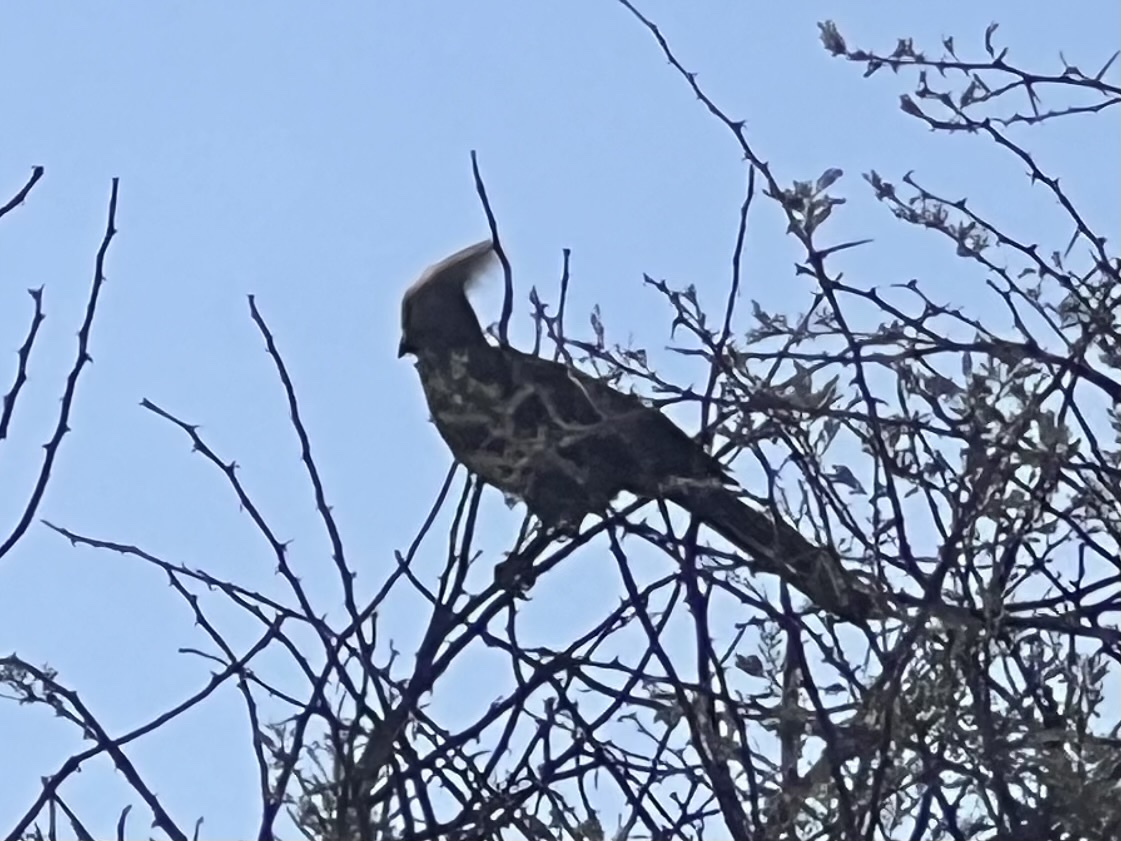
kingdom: Animalia
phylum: Chordata
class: Aves
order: Musophagiformes
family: Musophagidae
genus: Corythaixoides
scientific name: Corythaixoides concolor
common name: Grey go-away-bird
